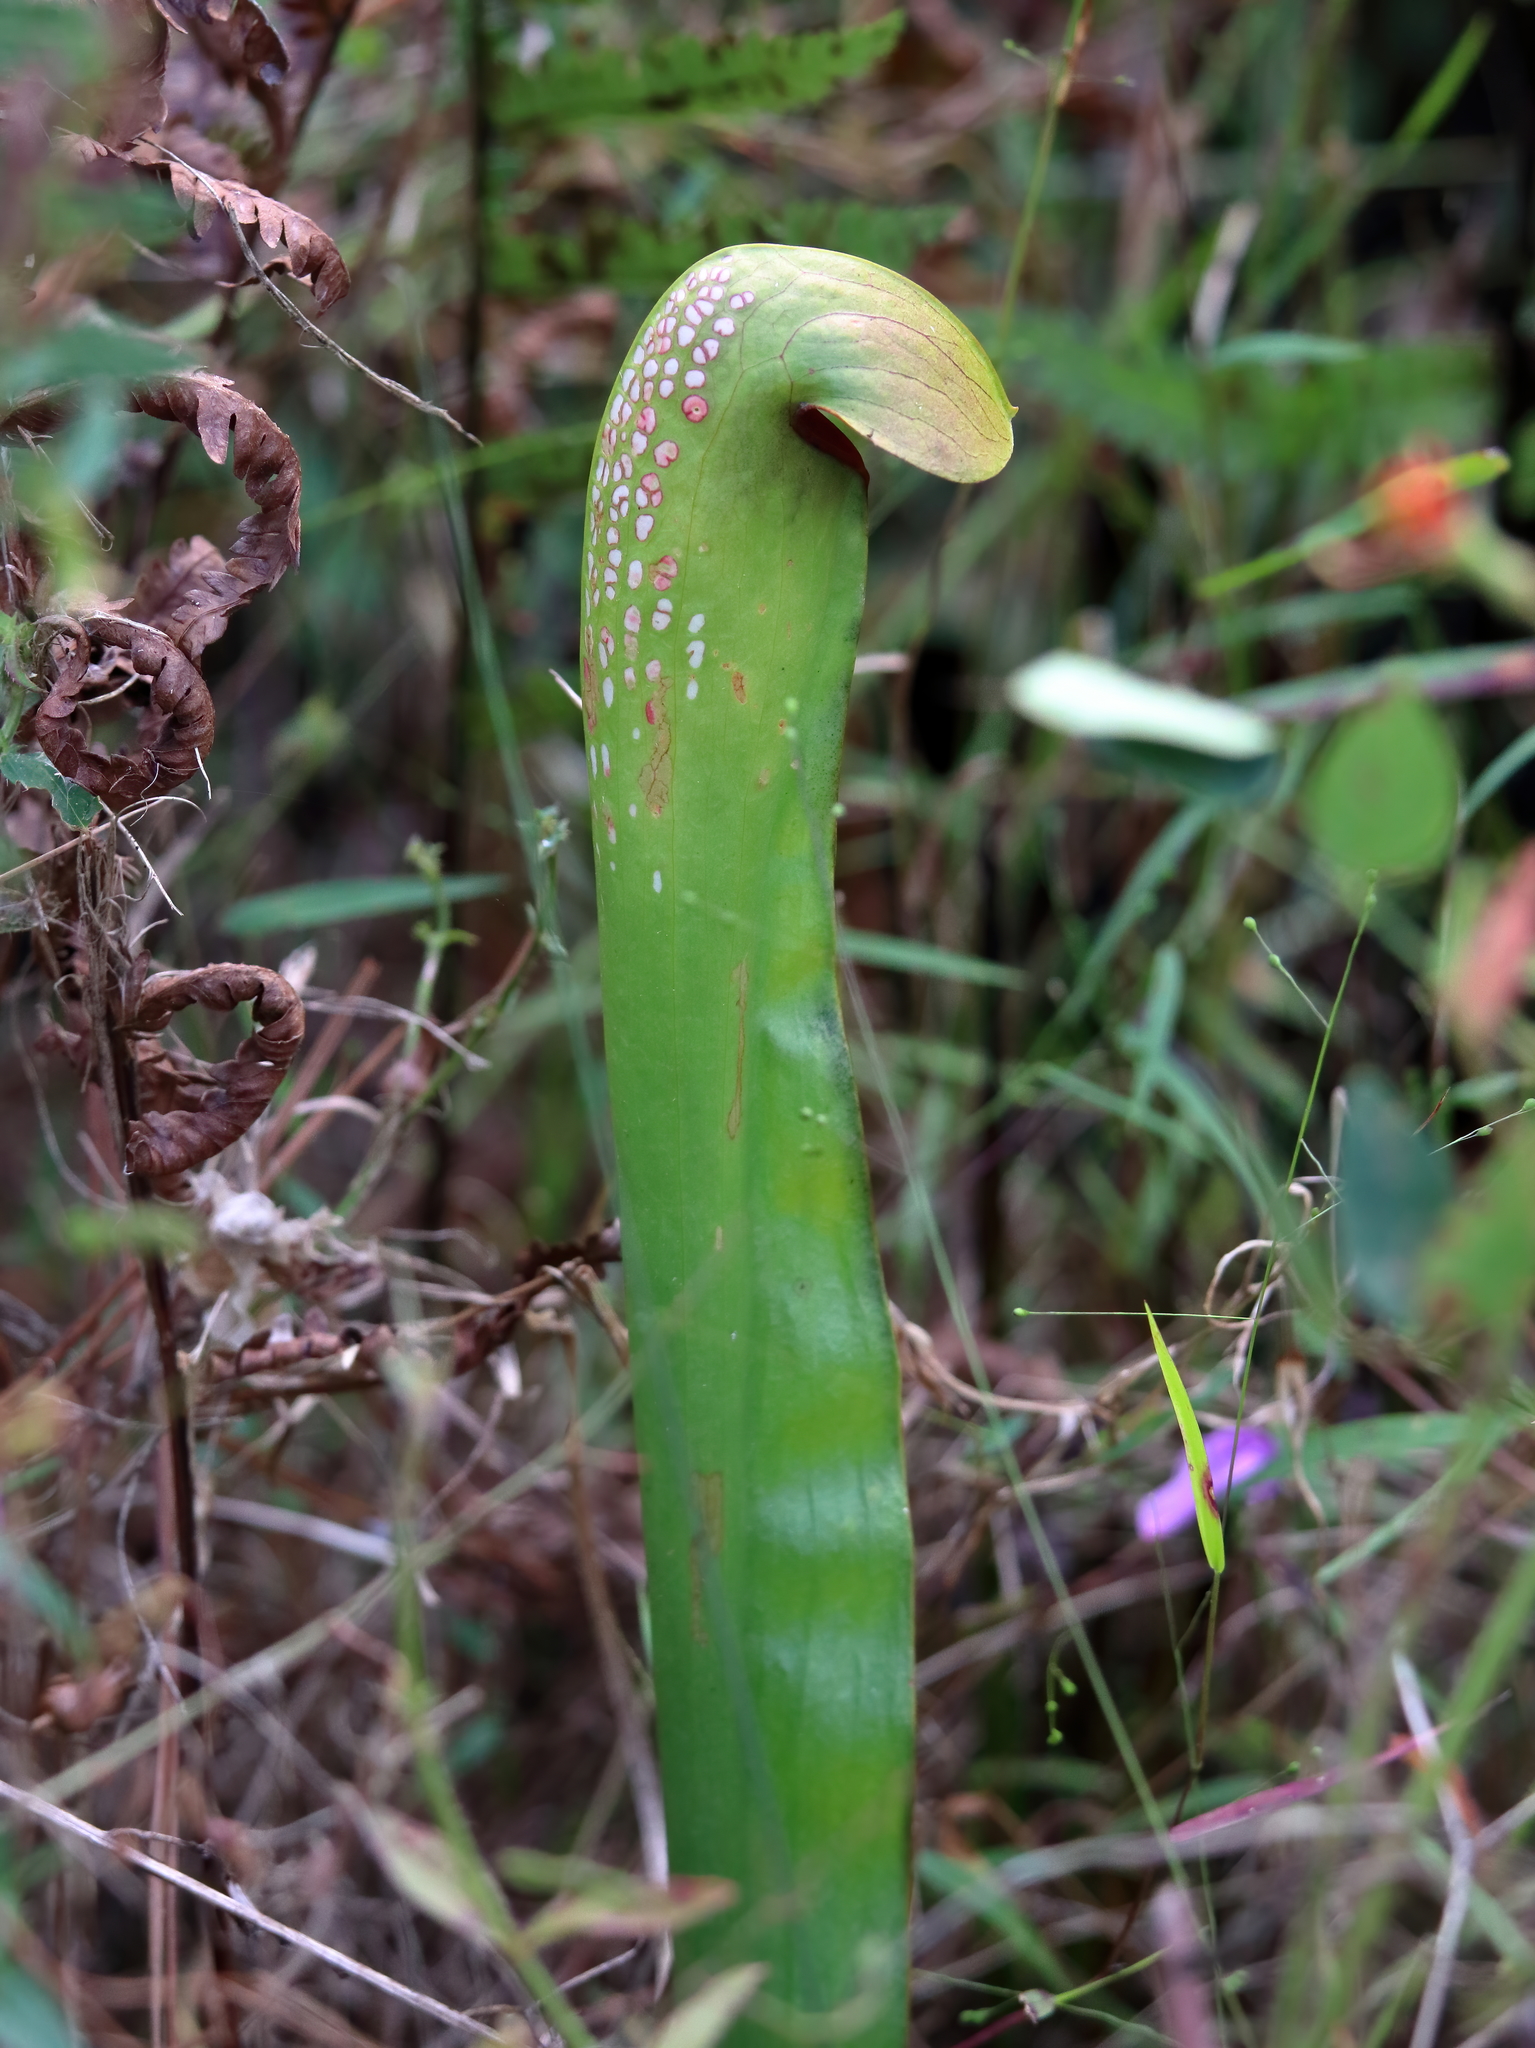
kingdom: Plantae
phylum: Tracheophyta
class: Magnoliopsida
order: Ericales
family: Sarraceniaceae
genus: Sarracenia
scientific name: Sarracenia minor
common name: Rainhat-trumpet
